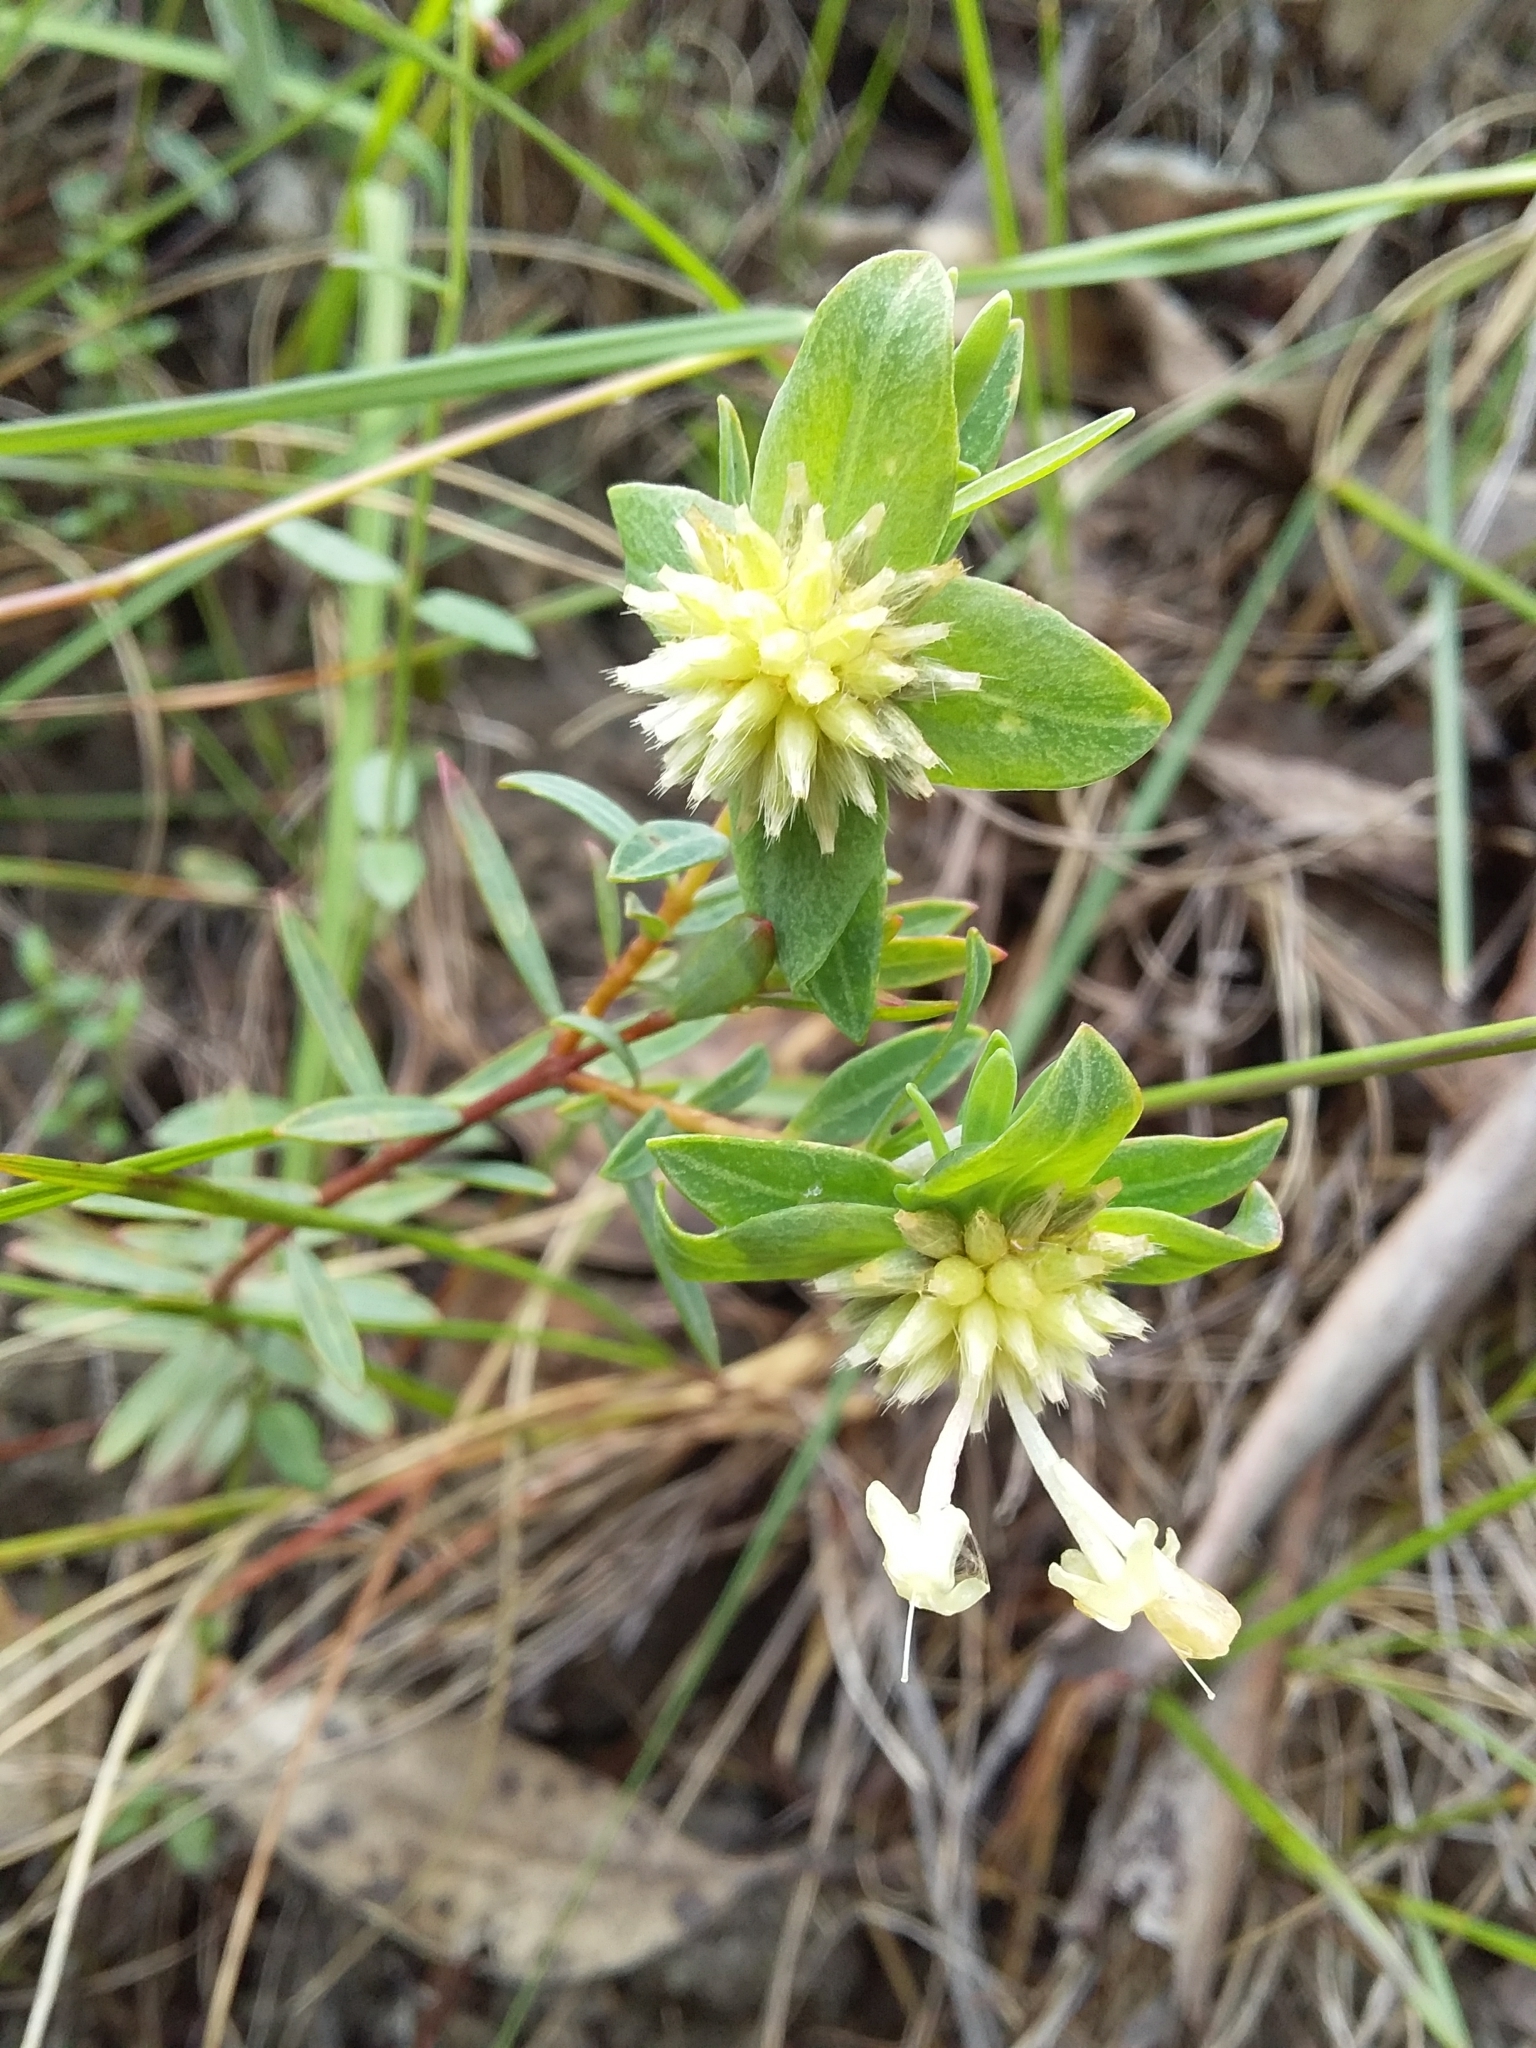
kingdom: Plantae
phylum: Tracheophyta
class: Magnoliopsida
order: Malvales
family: Thymelaeaceae
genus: Pimelea
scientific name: Pimelea linifolia
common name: Queen-of-the-bush
